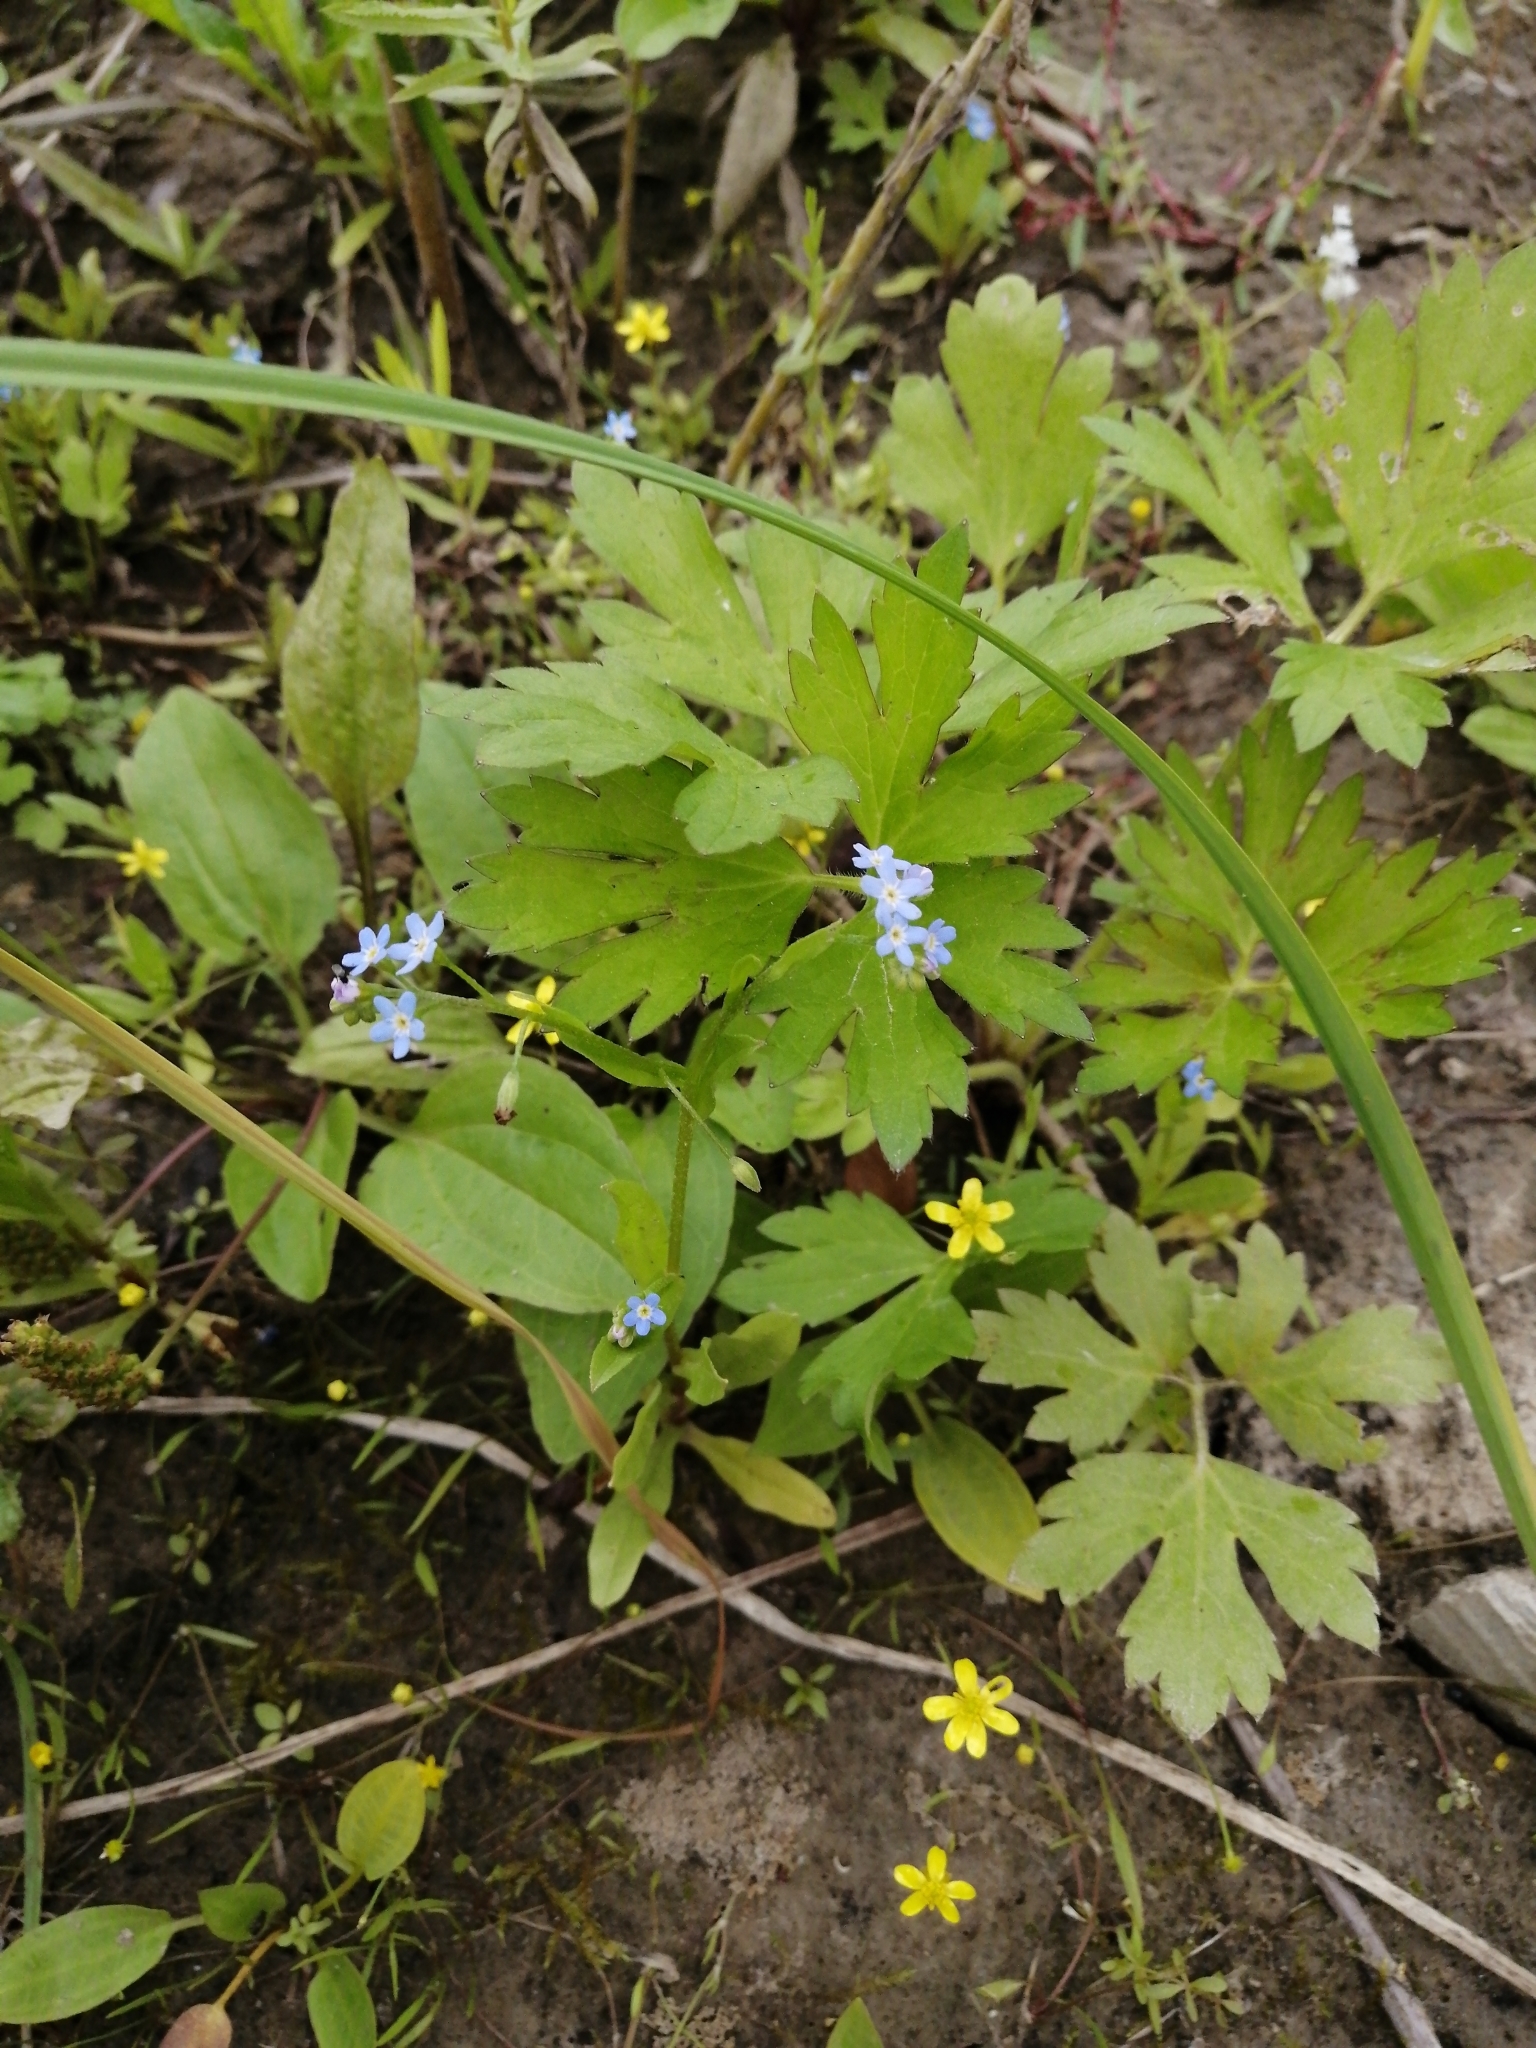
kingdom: Plantae
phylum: Tracheophyta
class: Magnoliopsida
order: Boraginales
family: Boraginaceae
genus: Myosotis
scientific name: Myosotis laxa
